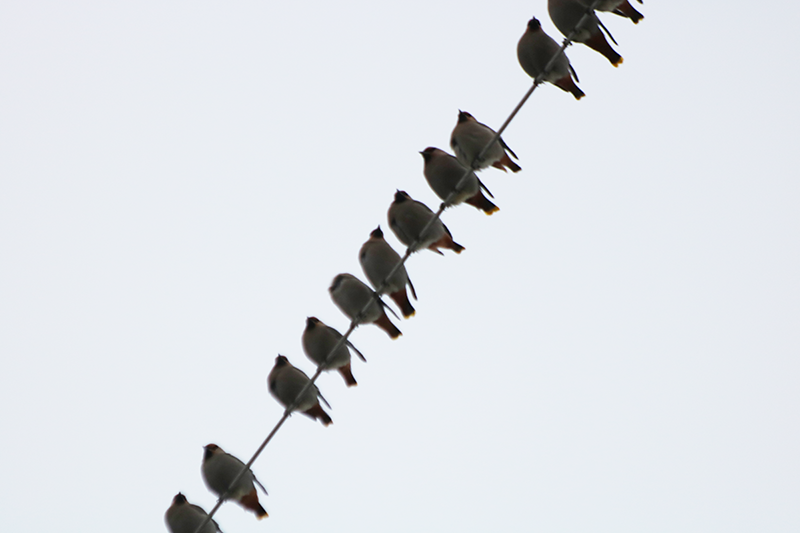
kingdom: Animalia
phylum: Chordata
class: Aves
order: Passeriformes
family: Bombycillidae
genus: Bombycilla
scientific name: Bombycilla garrulus
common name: Bohemian waxwing
